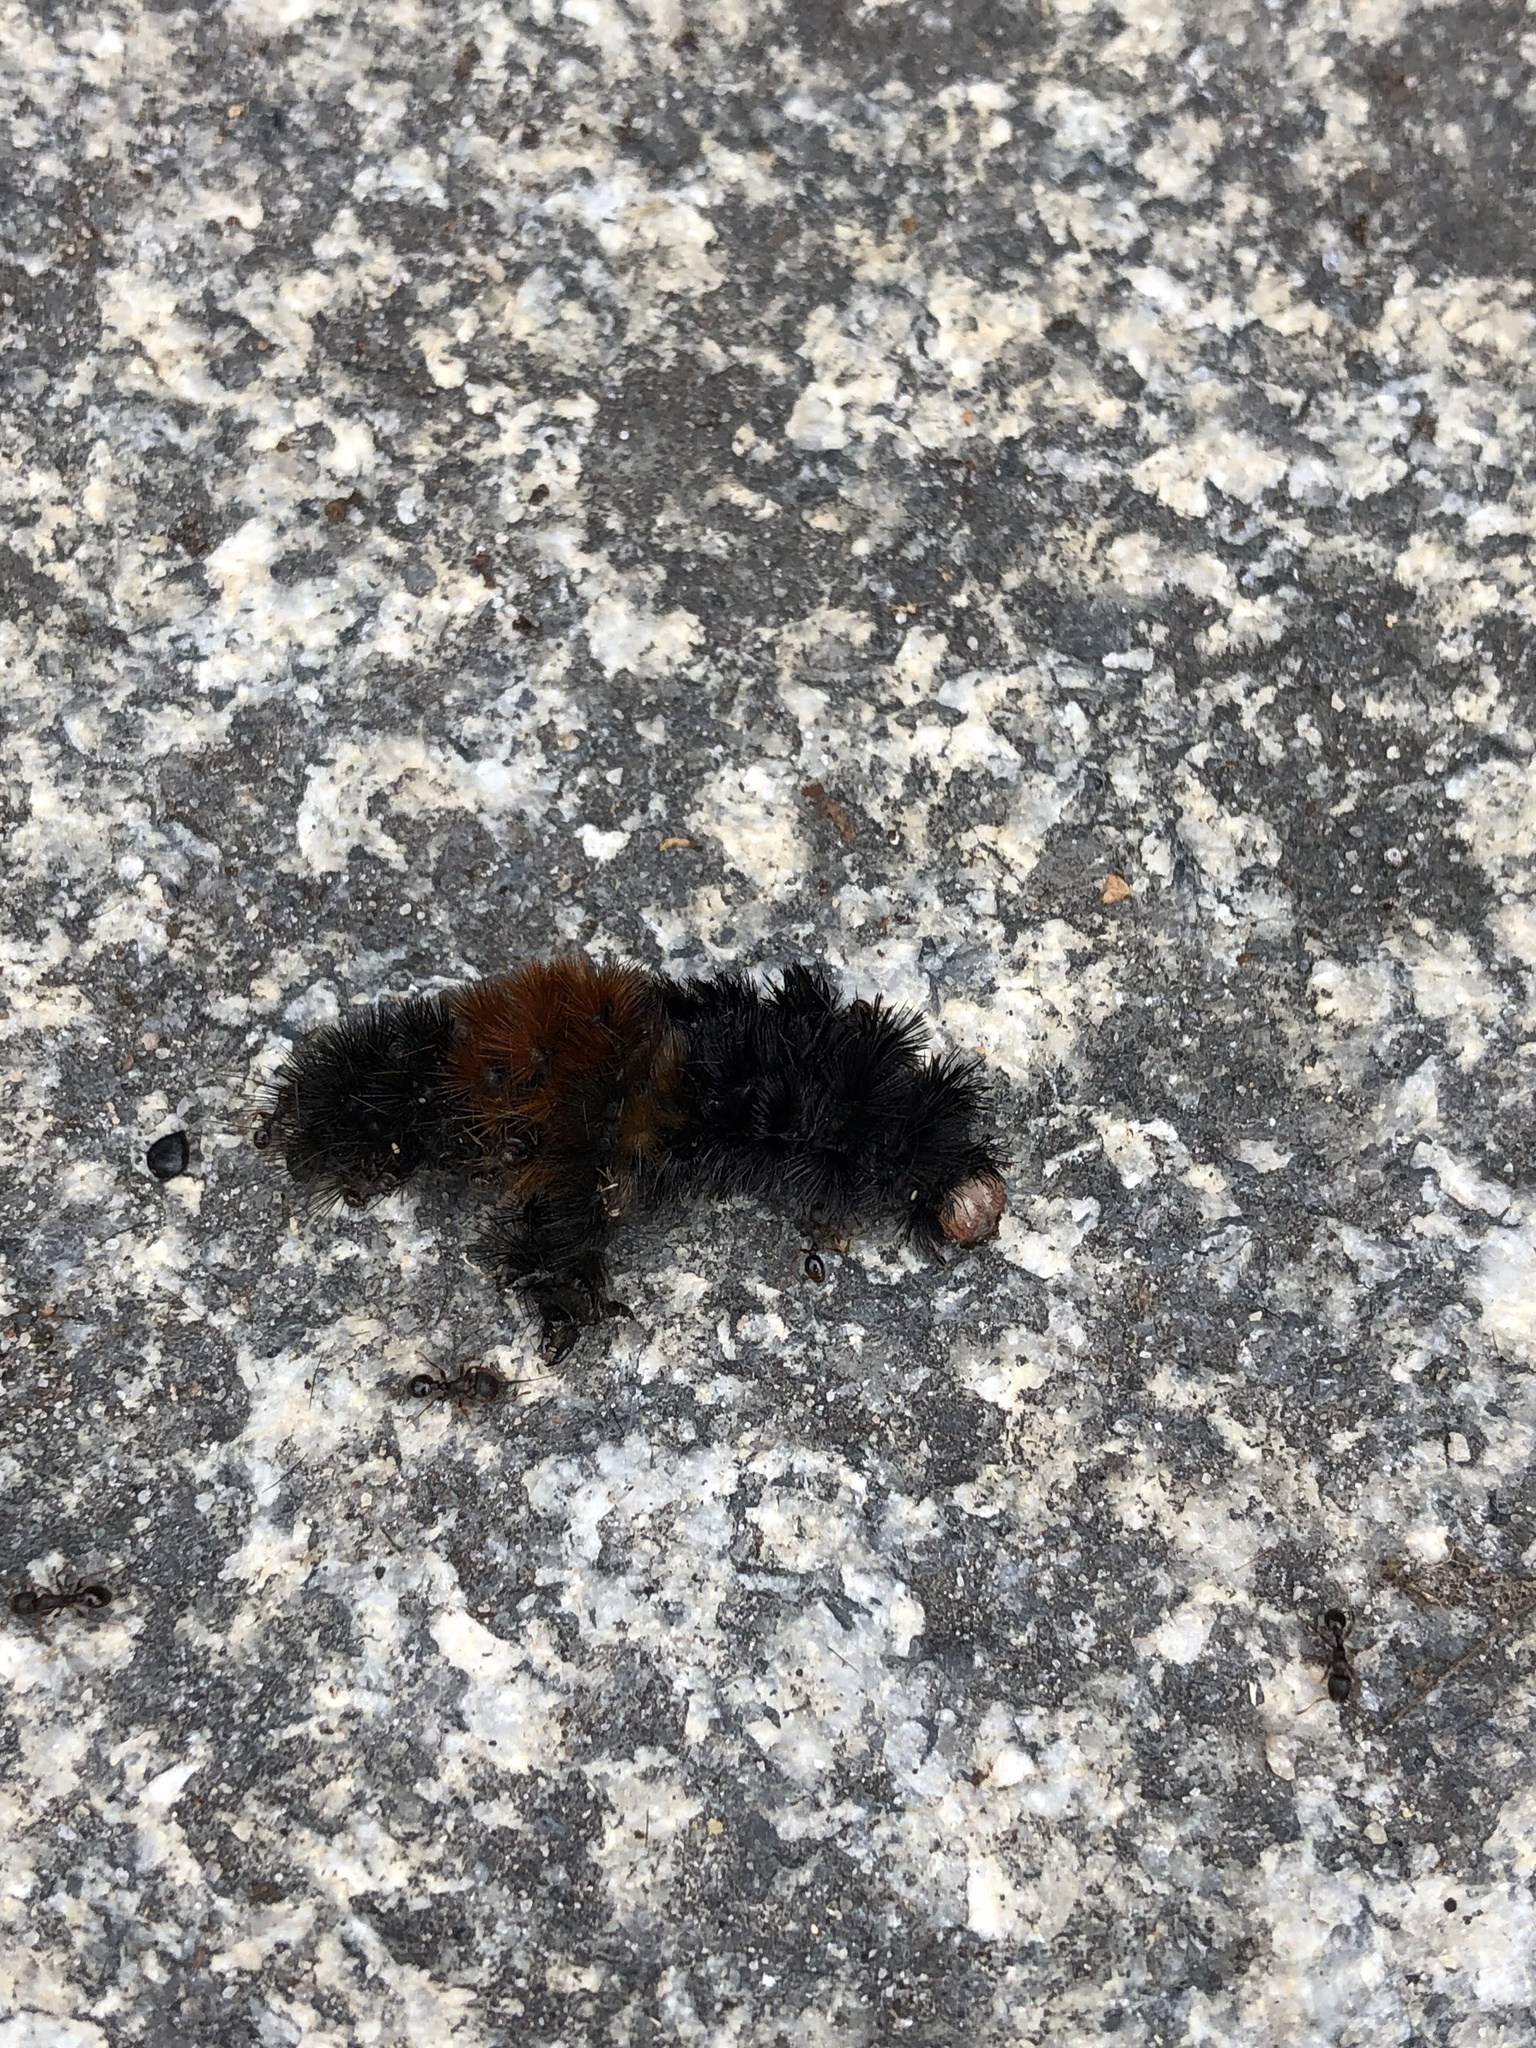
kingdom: Animalia
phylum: Arthropoda
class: Insecta
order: Lepidoptera
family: Erebidae
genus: Pyrrharctia
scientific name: Pyrrharctia isabella
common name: Isabella tiger moth
